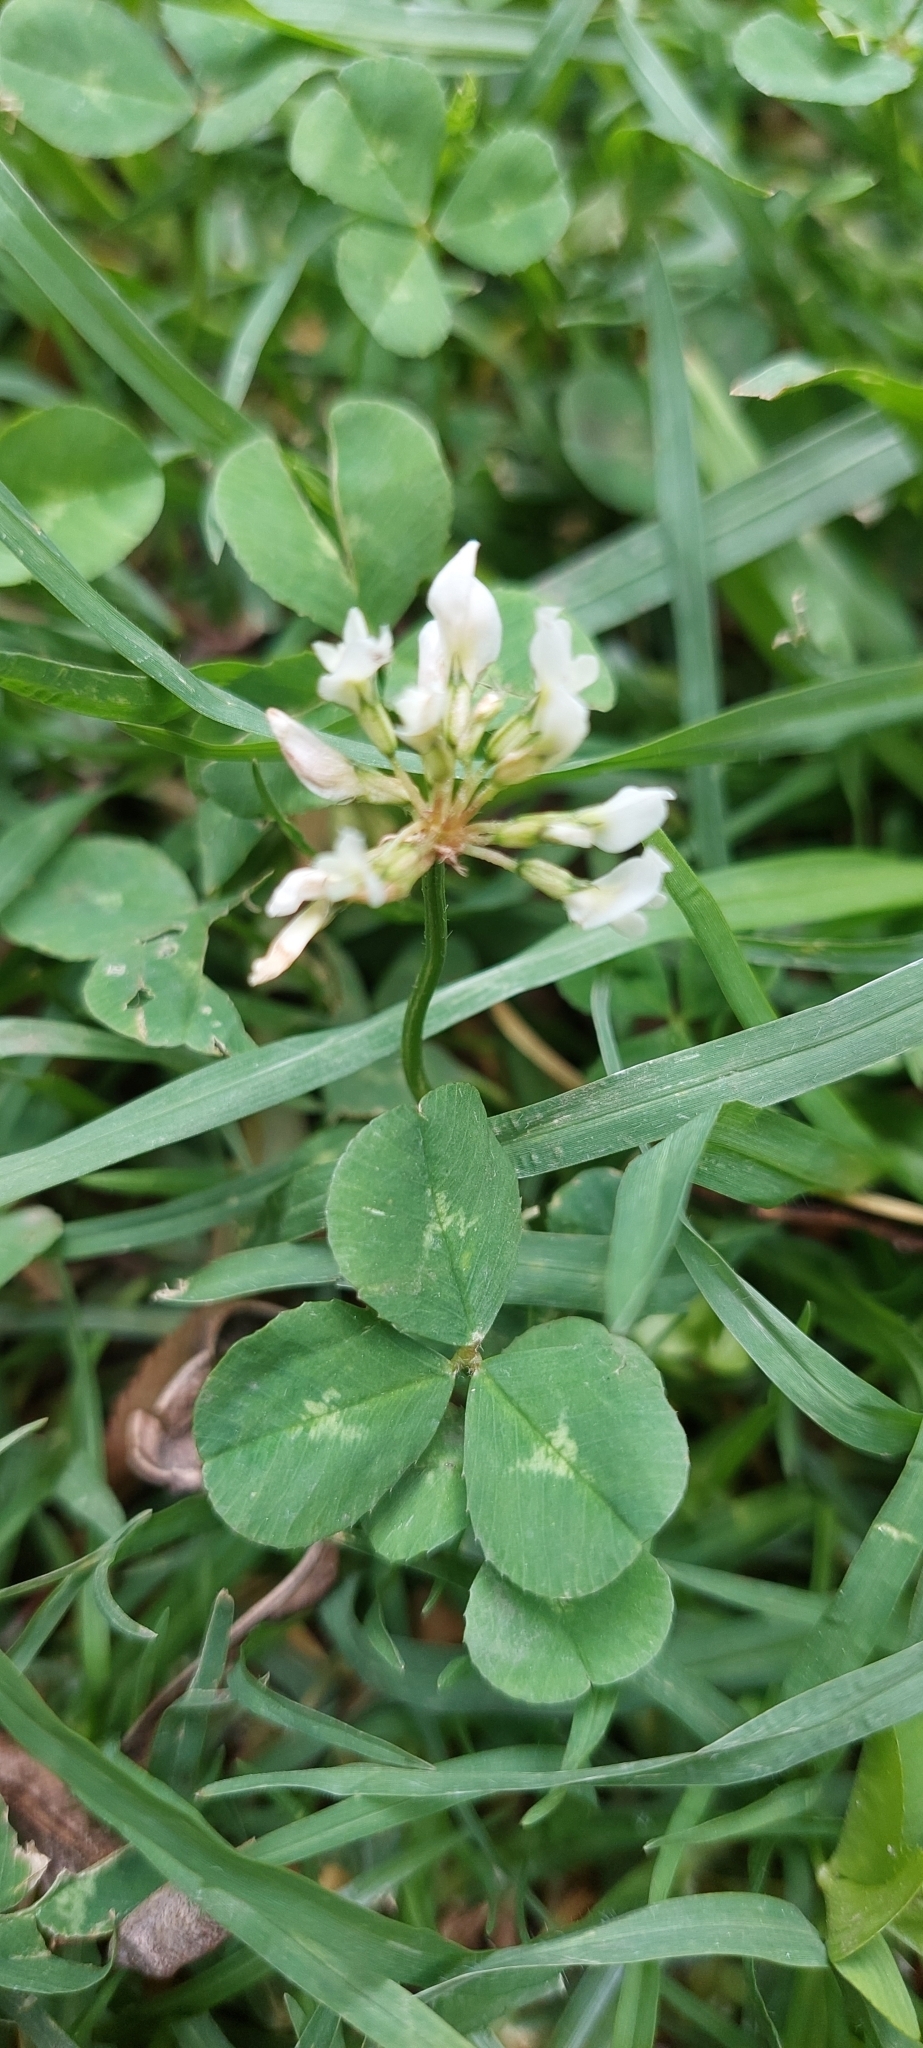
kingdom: Plantae
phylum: Tracheophyta
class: Magnoliopsida
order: Fabales
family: Fabaceae
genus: Trifolium
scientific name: Trifolium repens
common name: White clover
